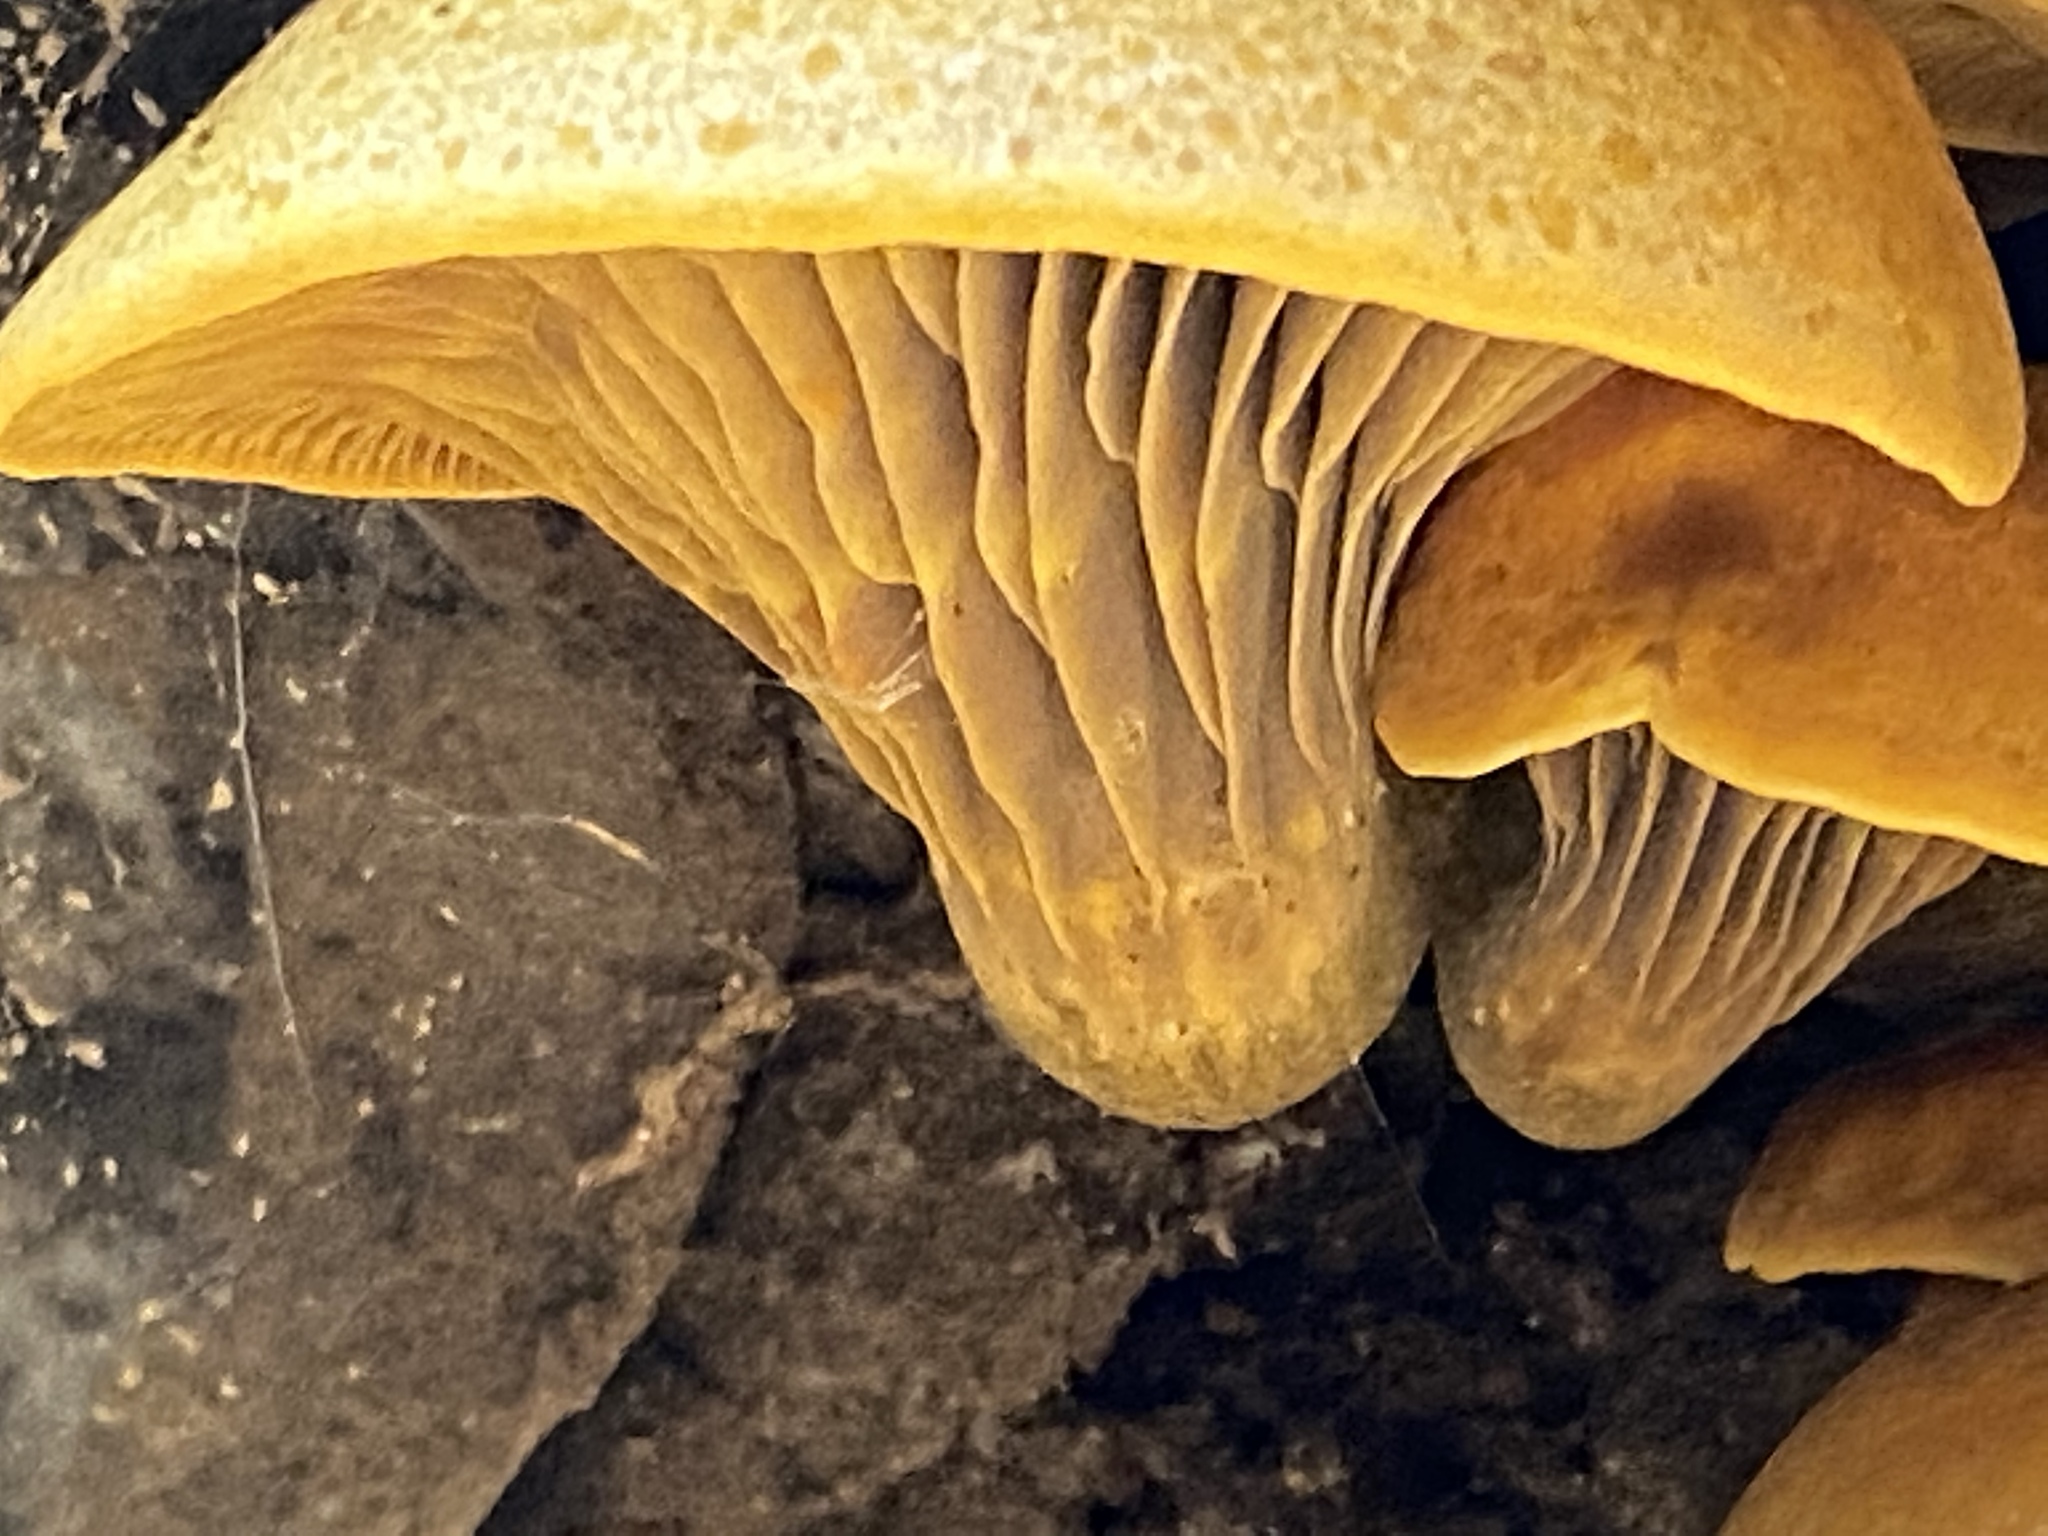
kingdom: Fungi
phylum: Basidiomycota
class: Agaricomycetes
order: Agaricales
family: Phyllotopsidaceae
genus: Phyllotopsis
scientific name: Phyllotopsis nidulans
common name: Orange mock oyster
